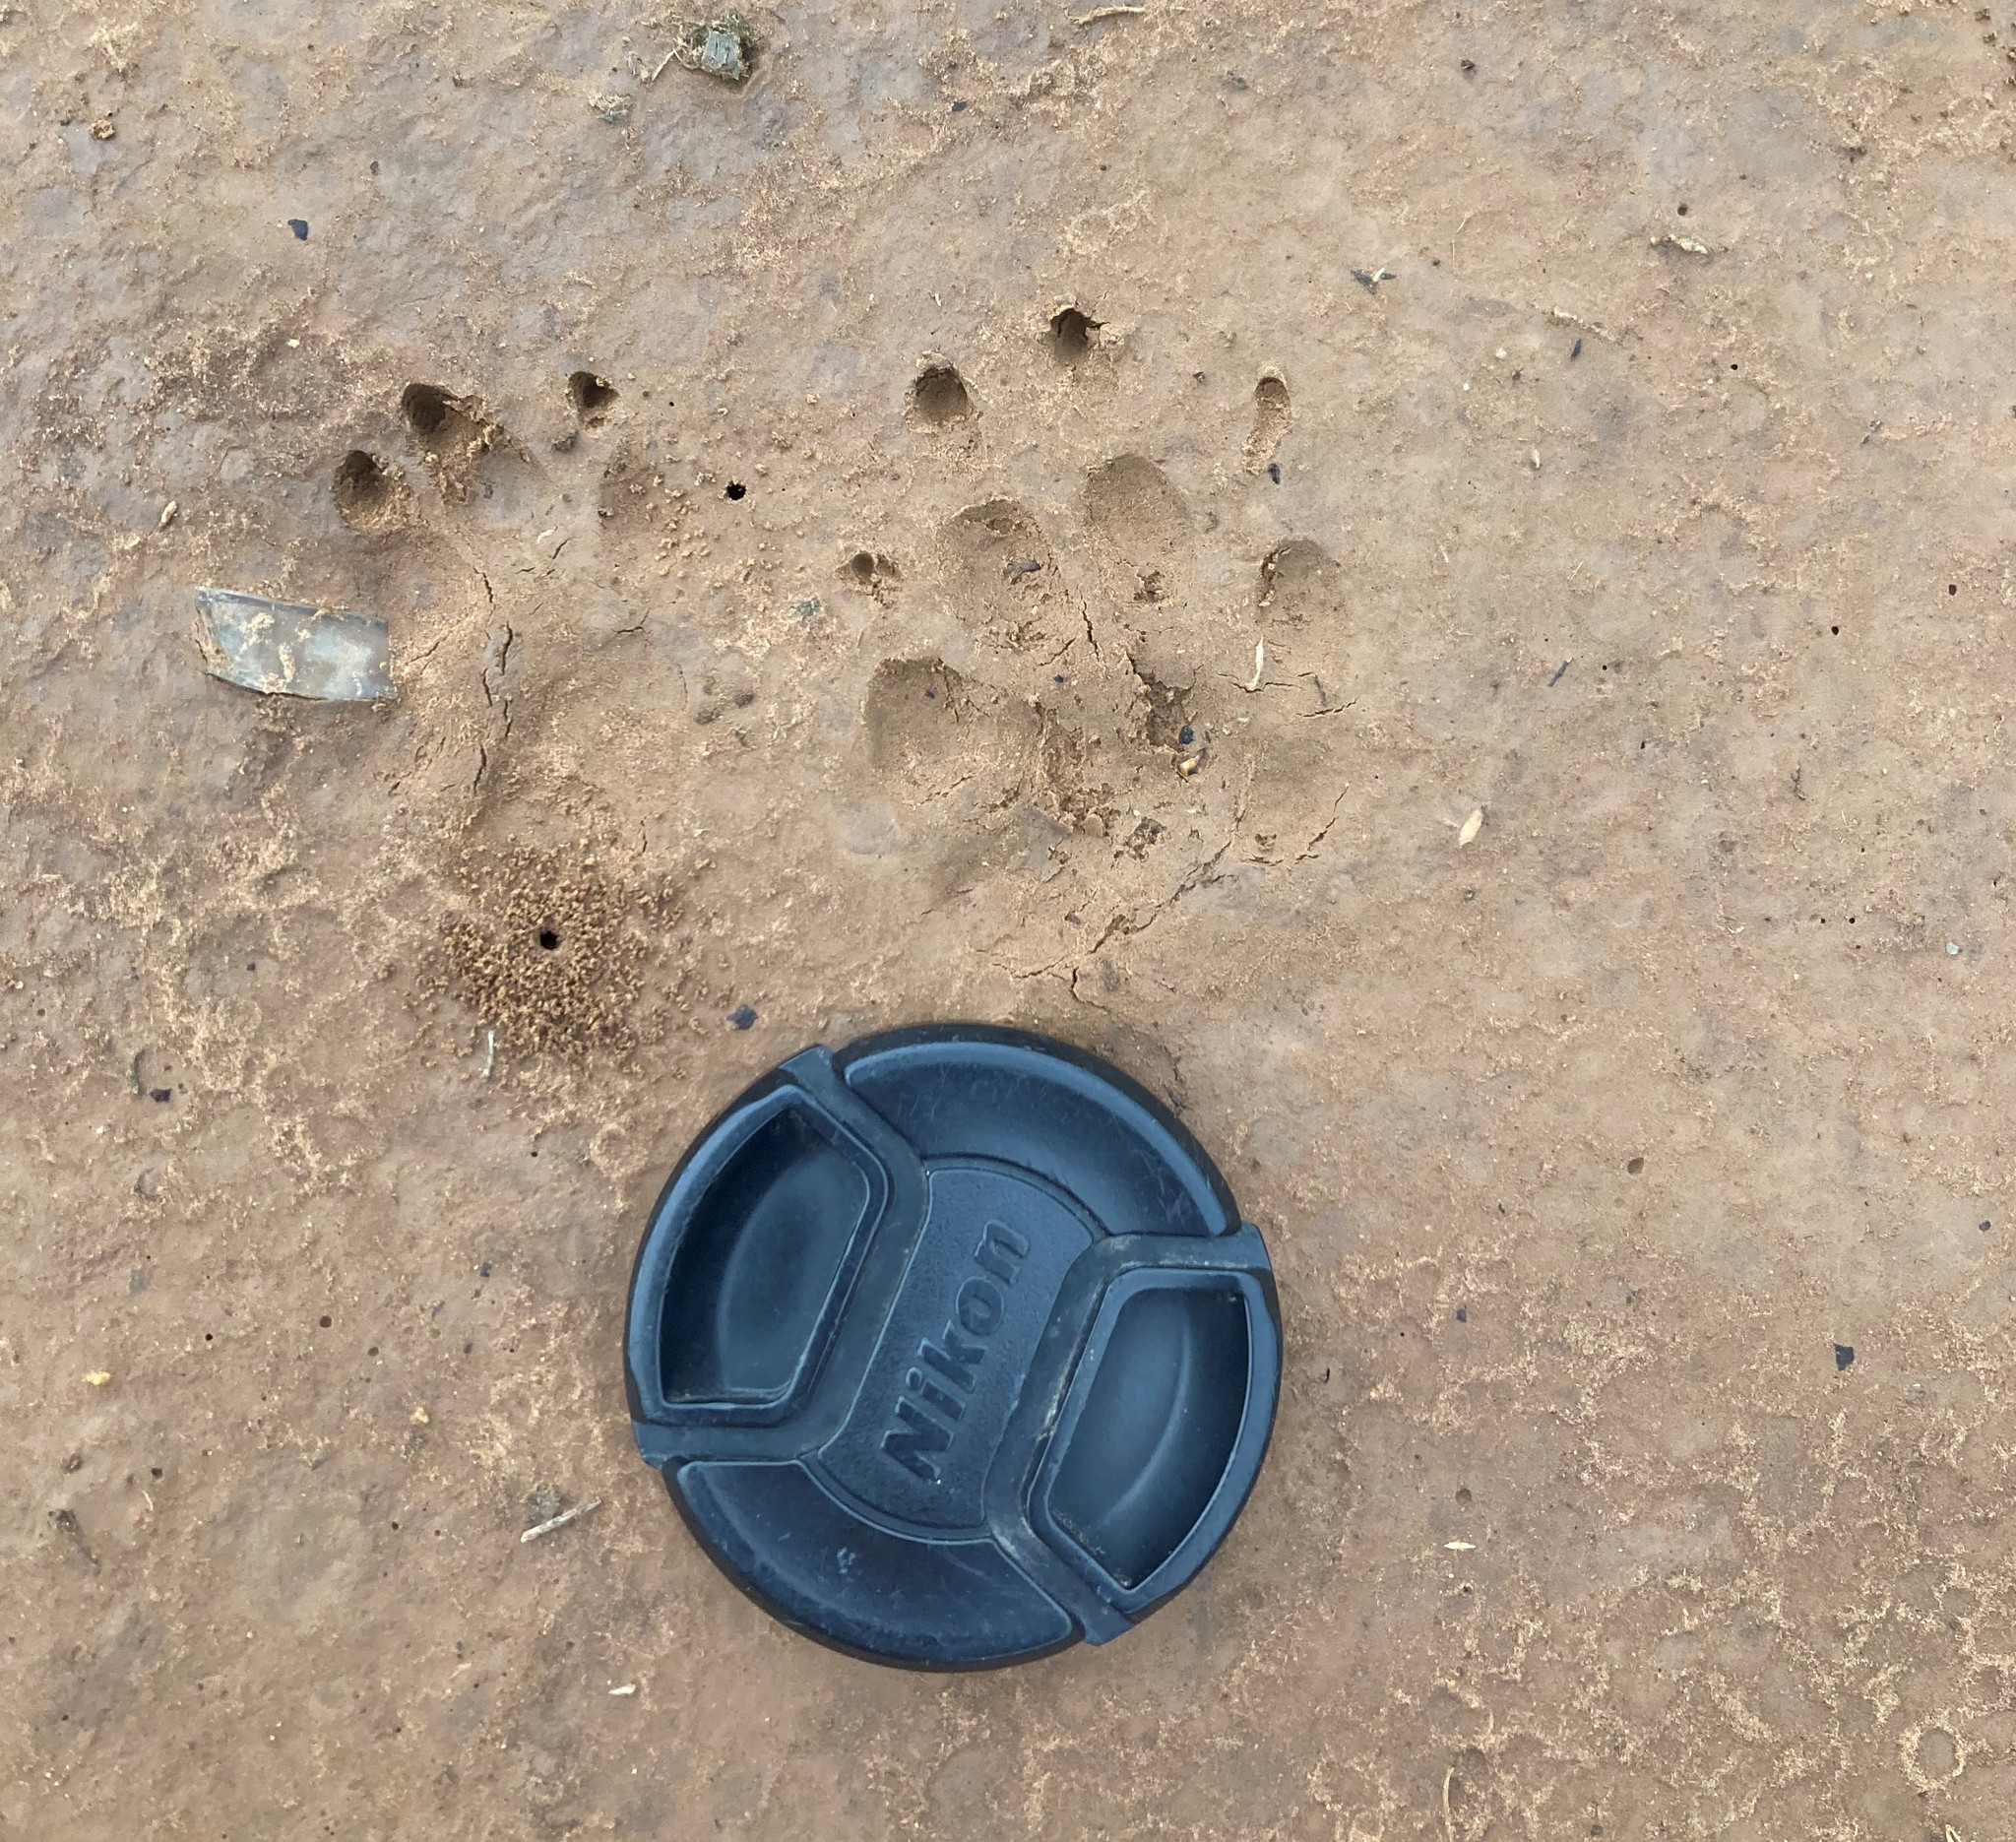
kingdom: Animalia
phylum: Chordata
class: Mammalia
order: Rodentia
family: Hystricidae
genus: Hystrix
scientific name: Hystrix africaeaustralis
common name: Cape porcupine
